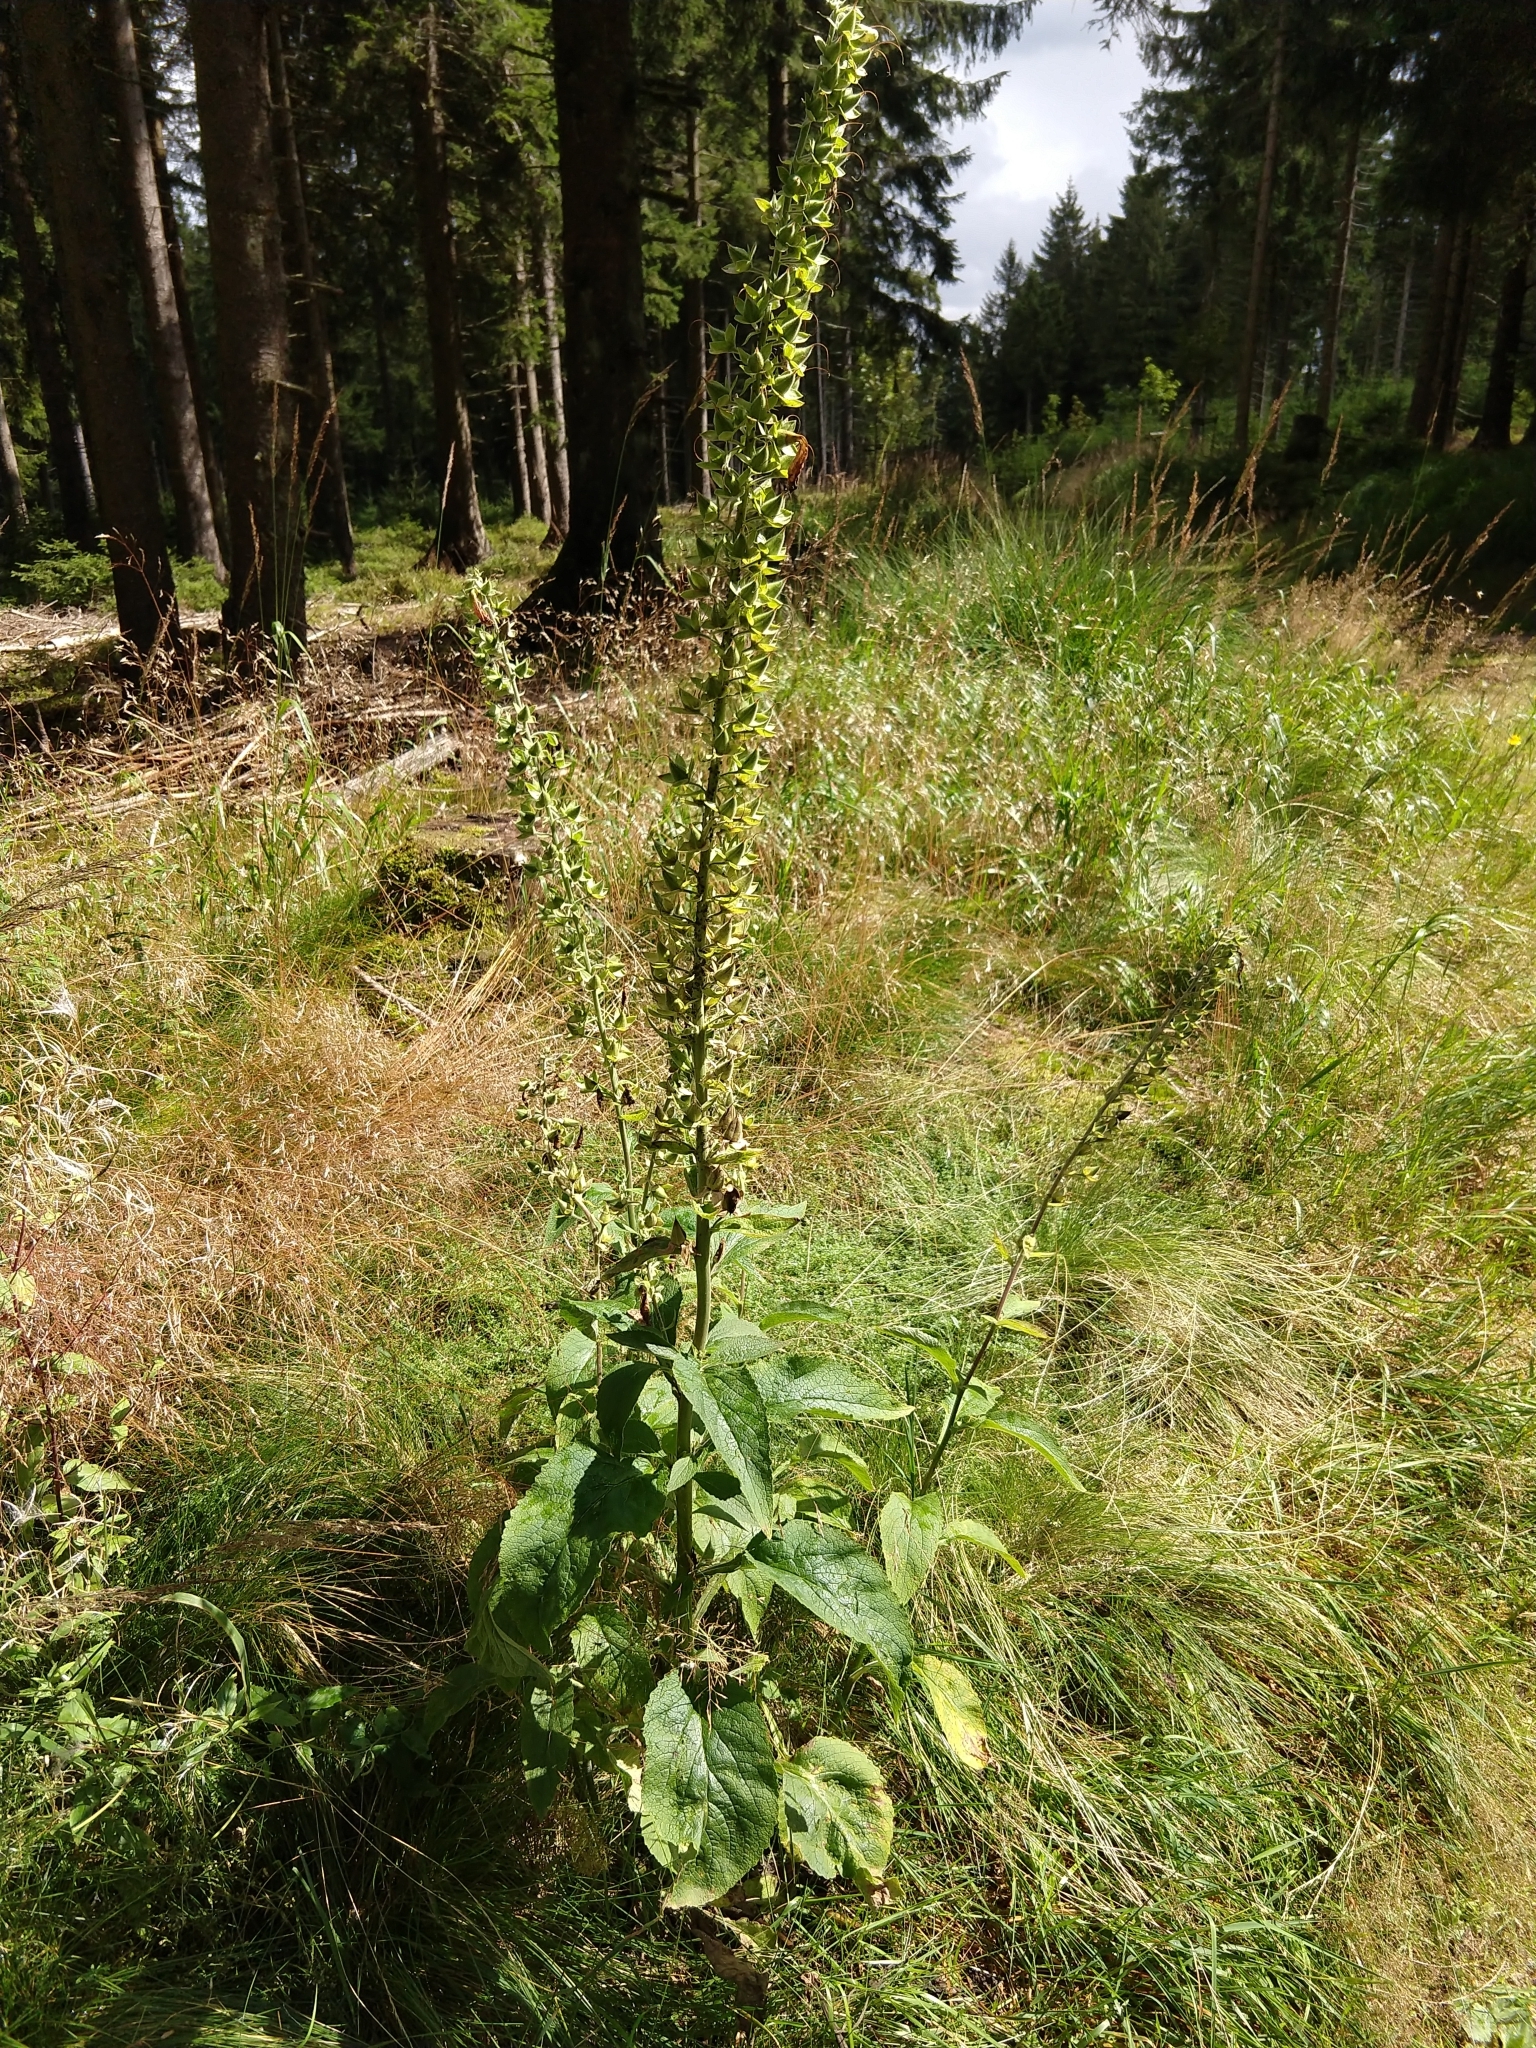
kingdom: Plantae
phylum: Tracheophyta
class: Magnoliopsida
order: Lamiales
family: Plantaginaceae
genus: Digitalis
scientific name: Digitalis purpurea
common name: Foxglove
